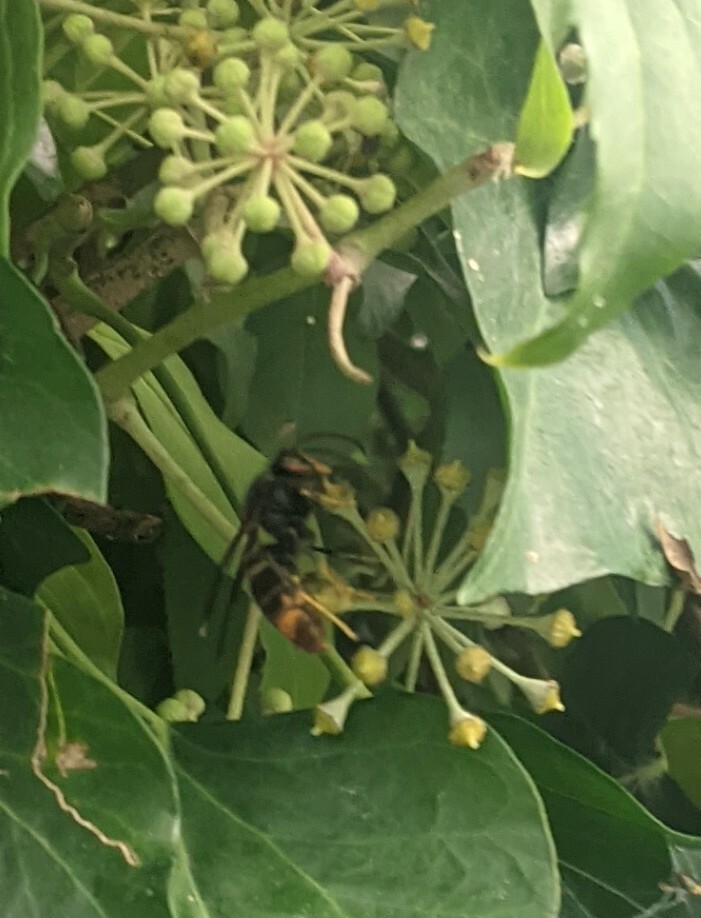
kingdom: Animalia
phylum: Arthropoda
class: Insecta
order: Hymenoptera
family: Vespidae
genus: Vespa
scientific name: Vespa velutina
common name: Asian hornet
